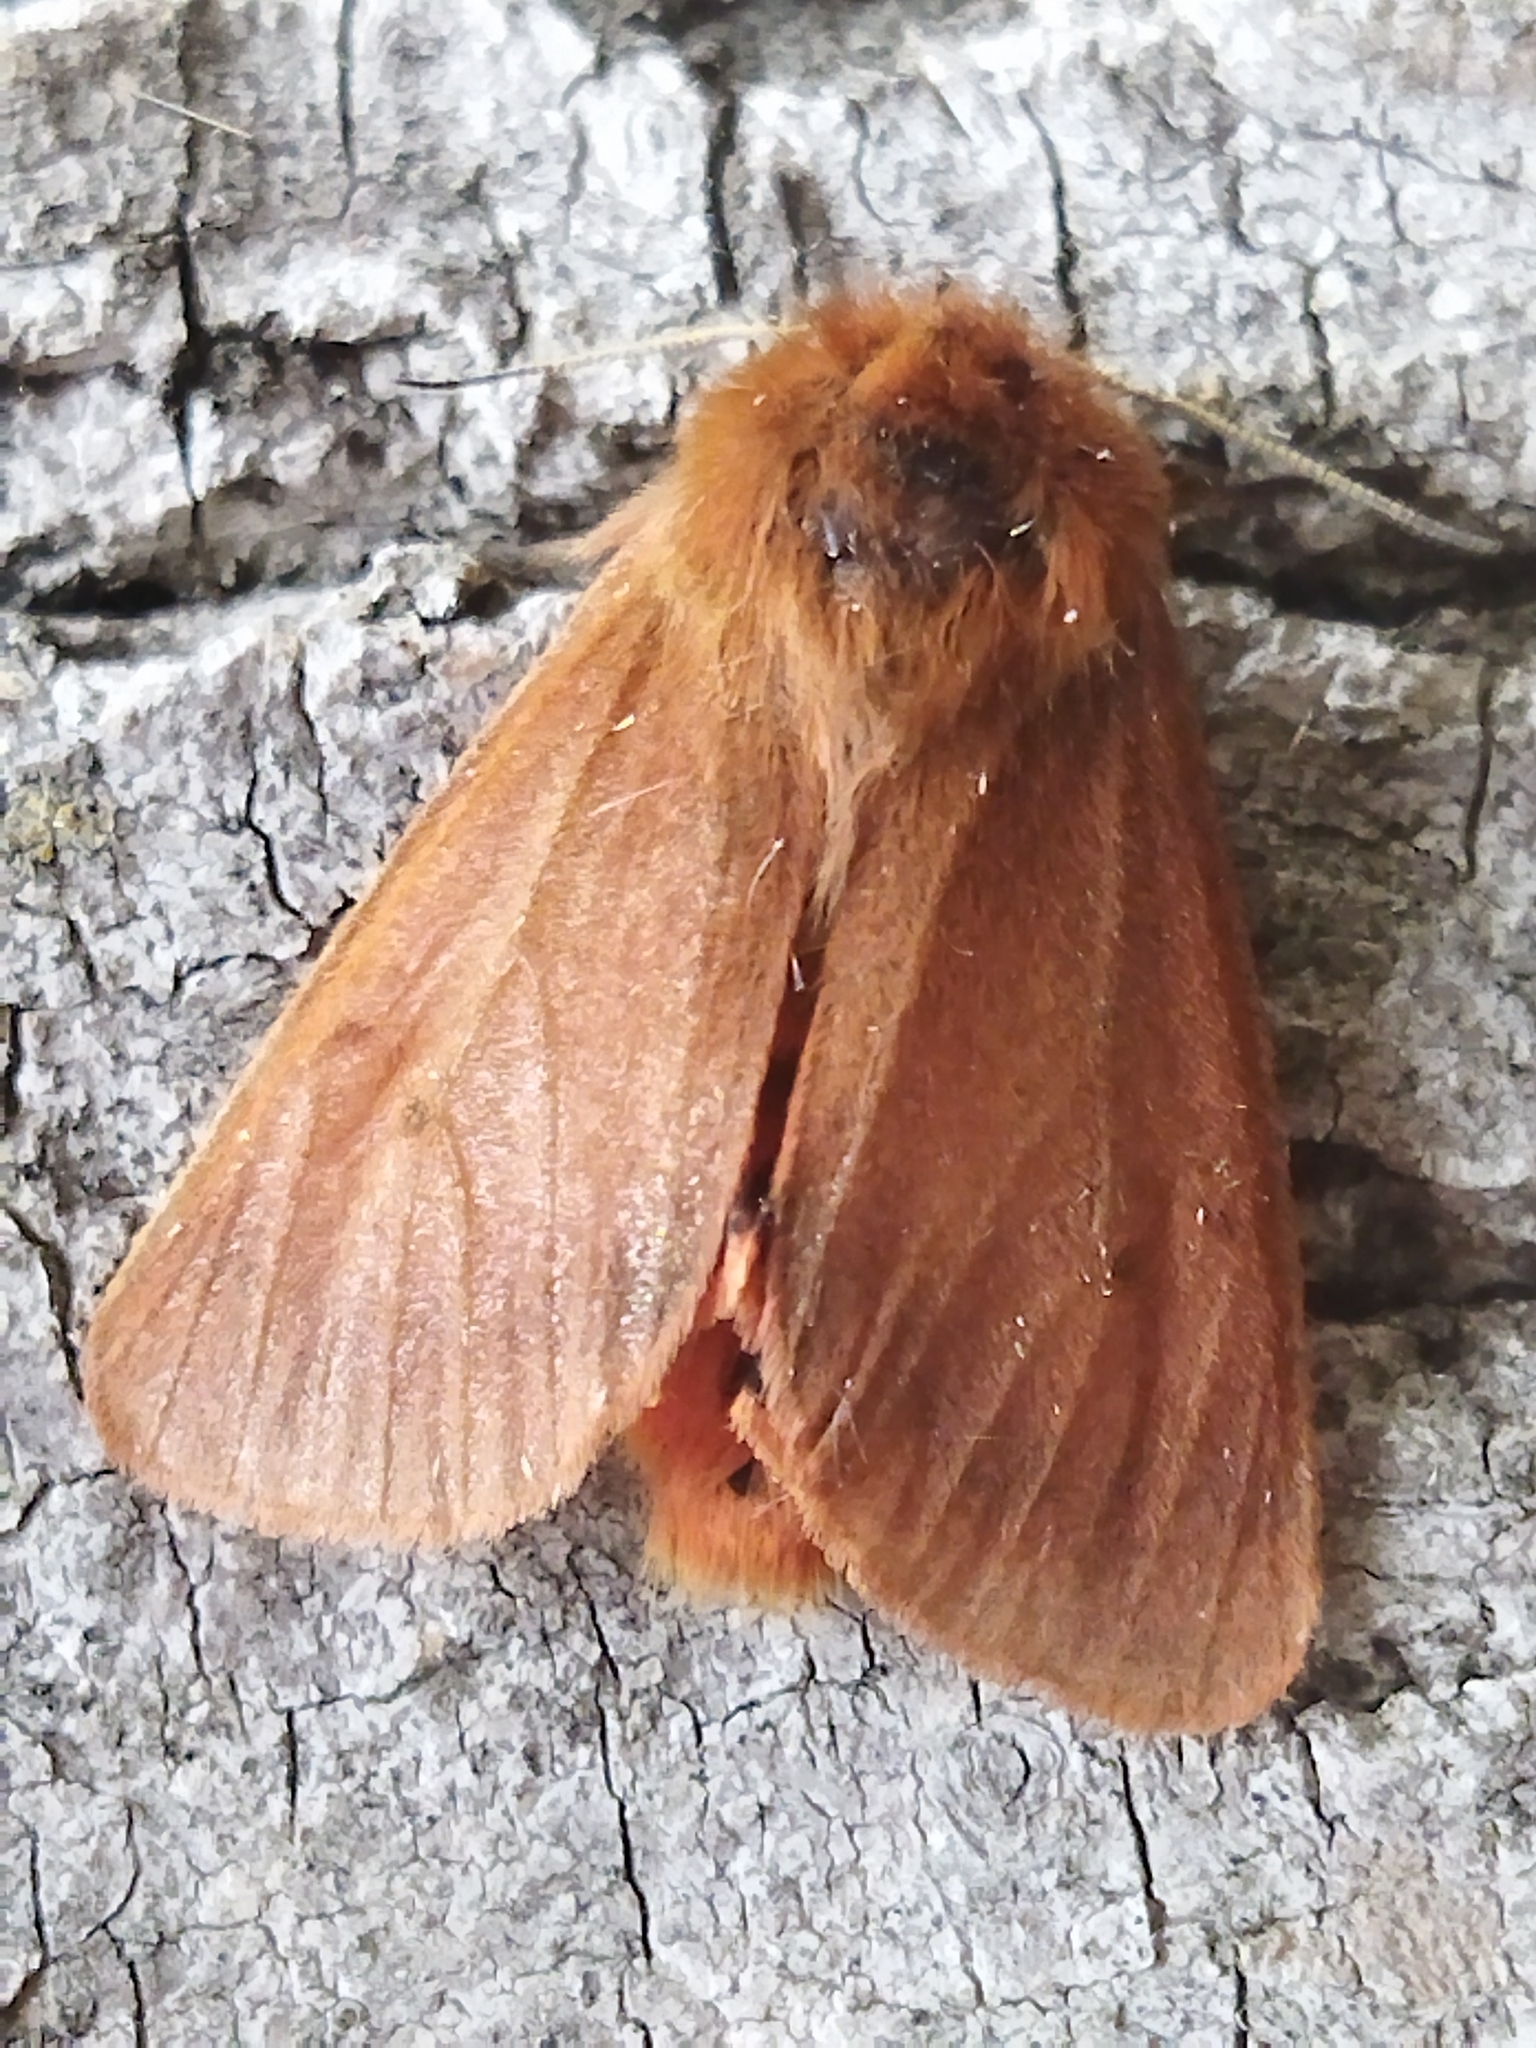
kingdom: Animalia
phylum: Arthropoda
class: Insecta
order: Lepidoptera
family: Erebidae
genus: Phragmatobia
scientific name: Phragmatobia fuliginosa
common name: Ruby tiger
